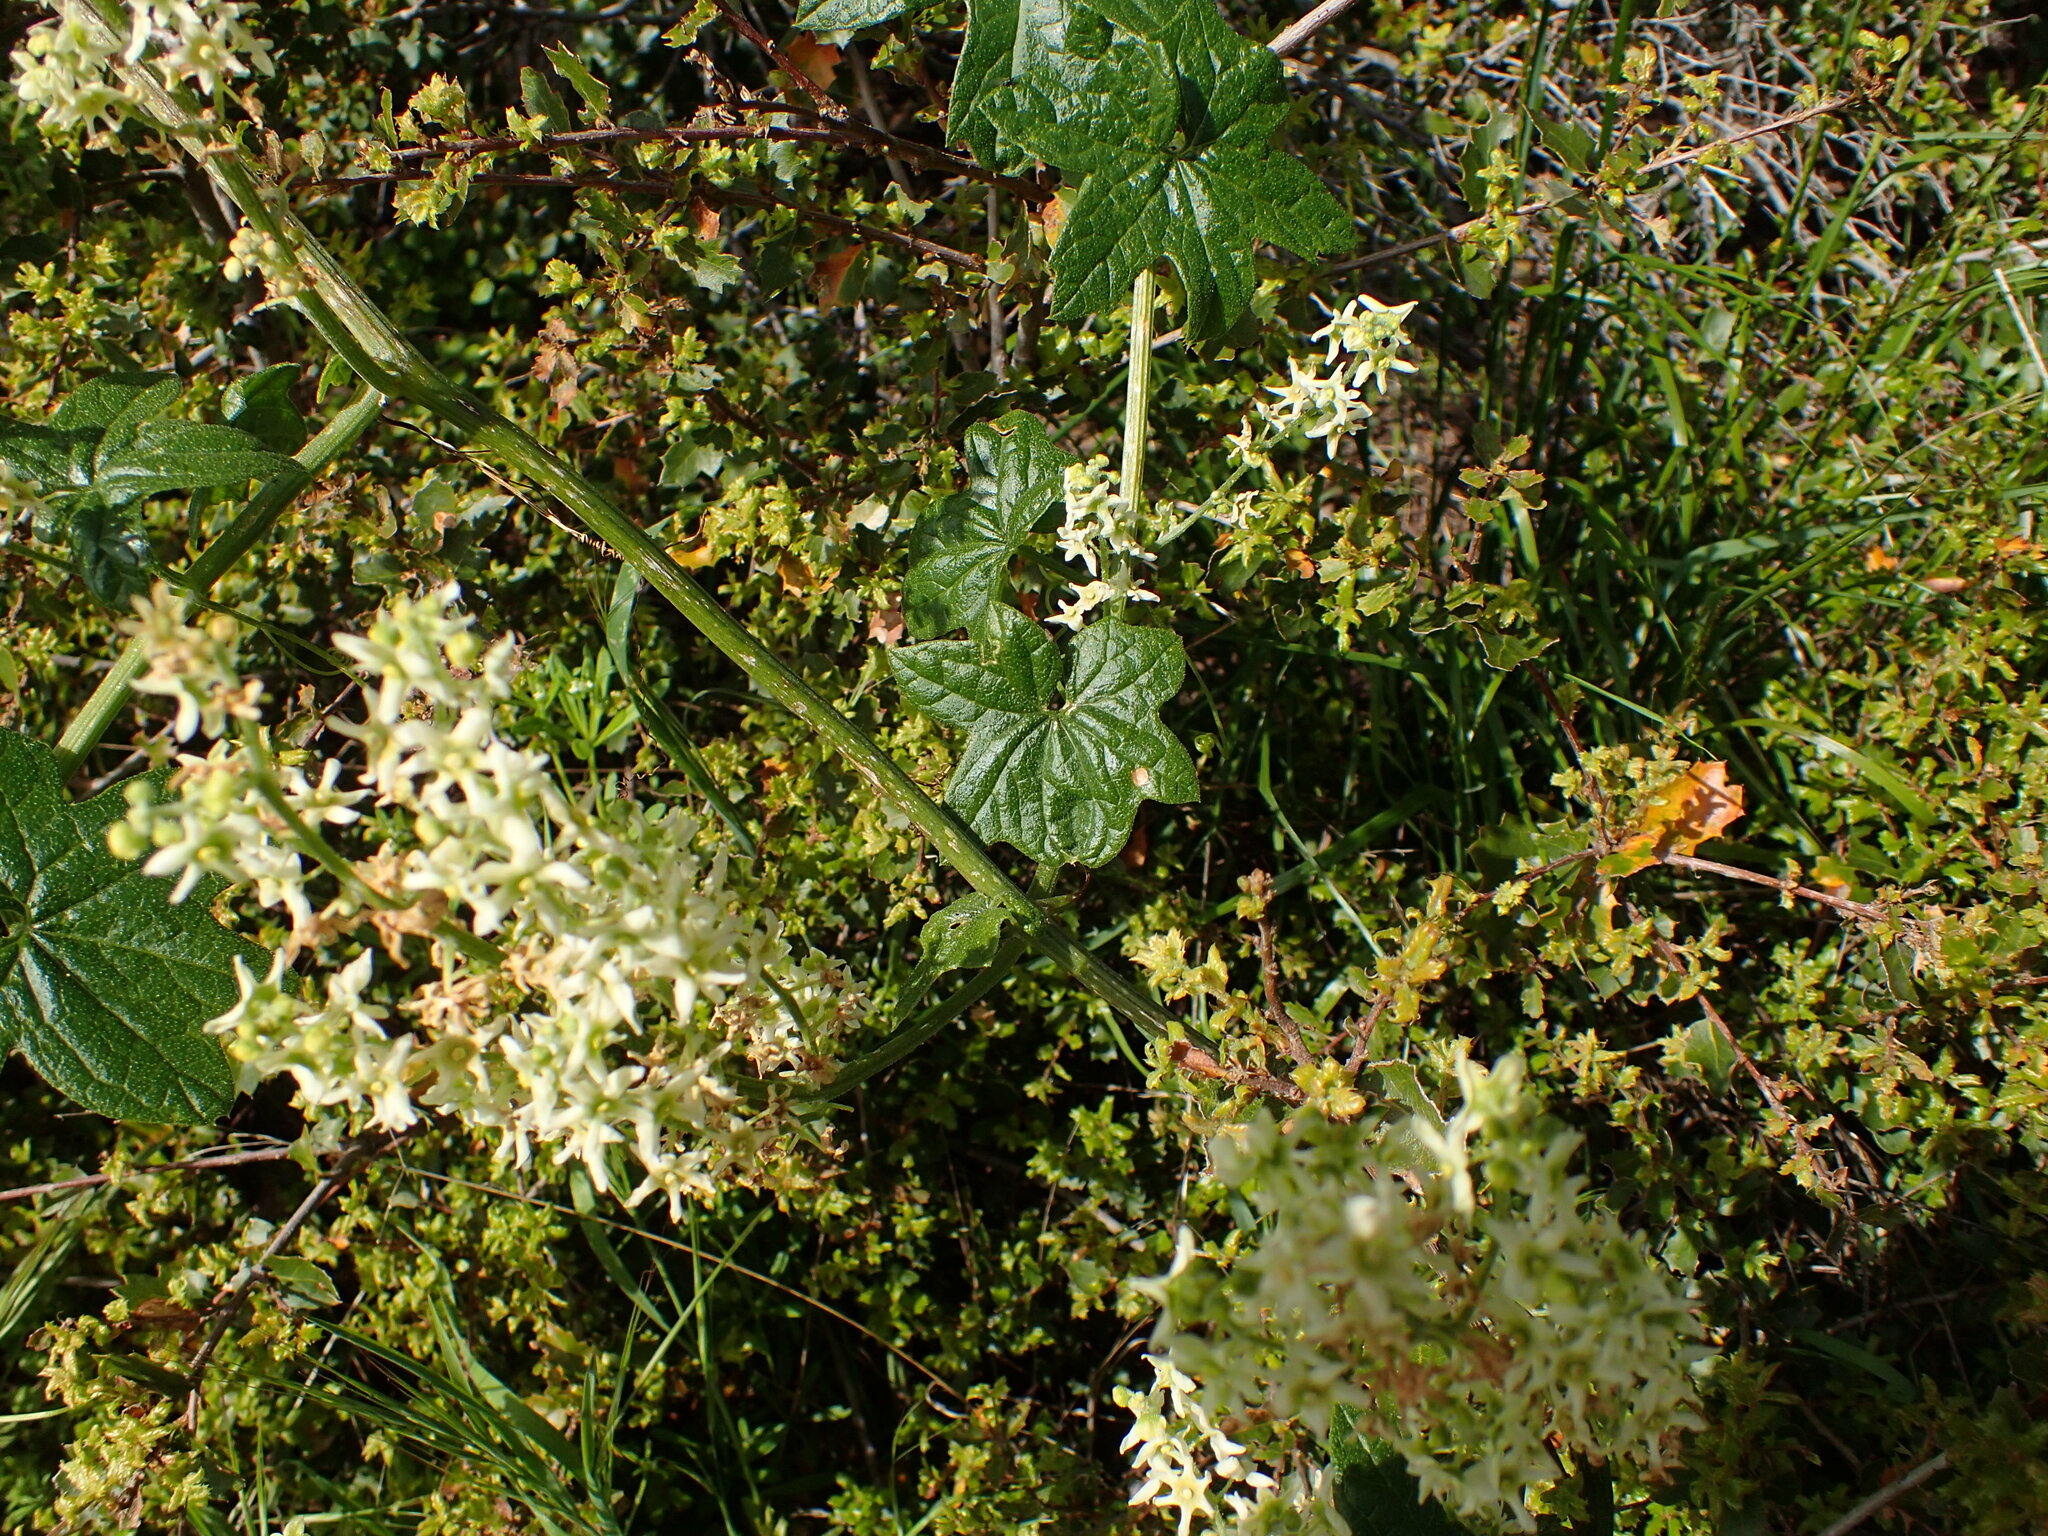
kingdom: Plantae
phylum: Tracheophyta
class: Magnoliopsida
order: Cucurbitales
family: Cucurbitaceae
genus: Marah
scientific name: Marah fabacea
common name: California manroot
